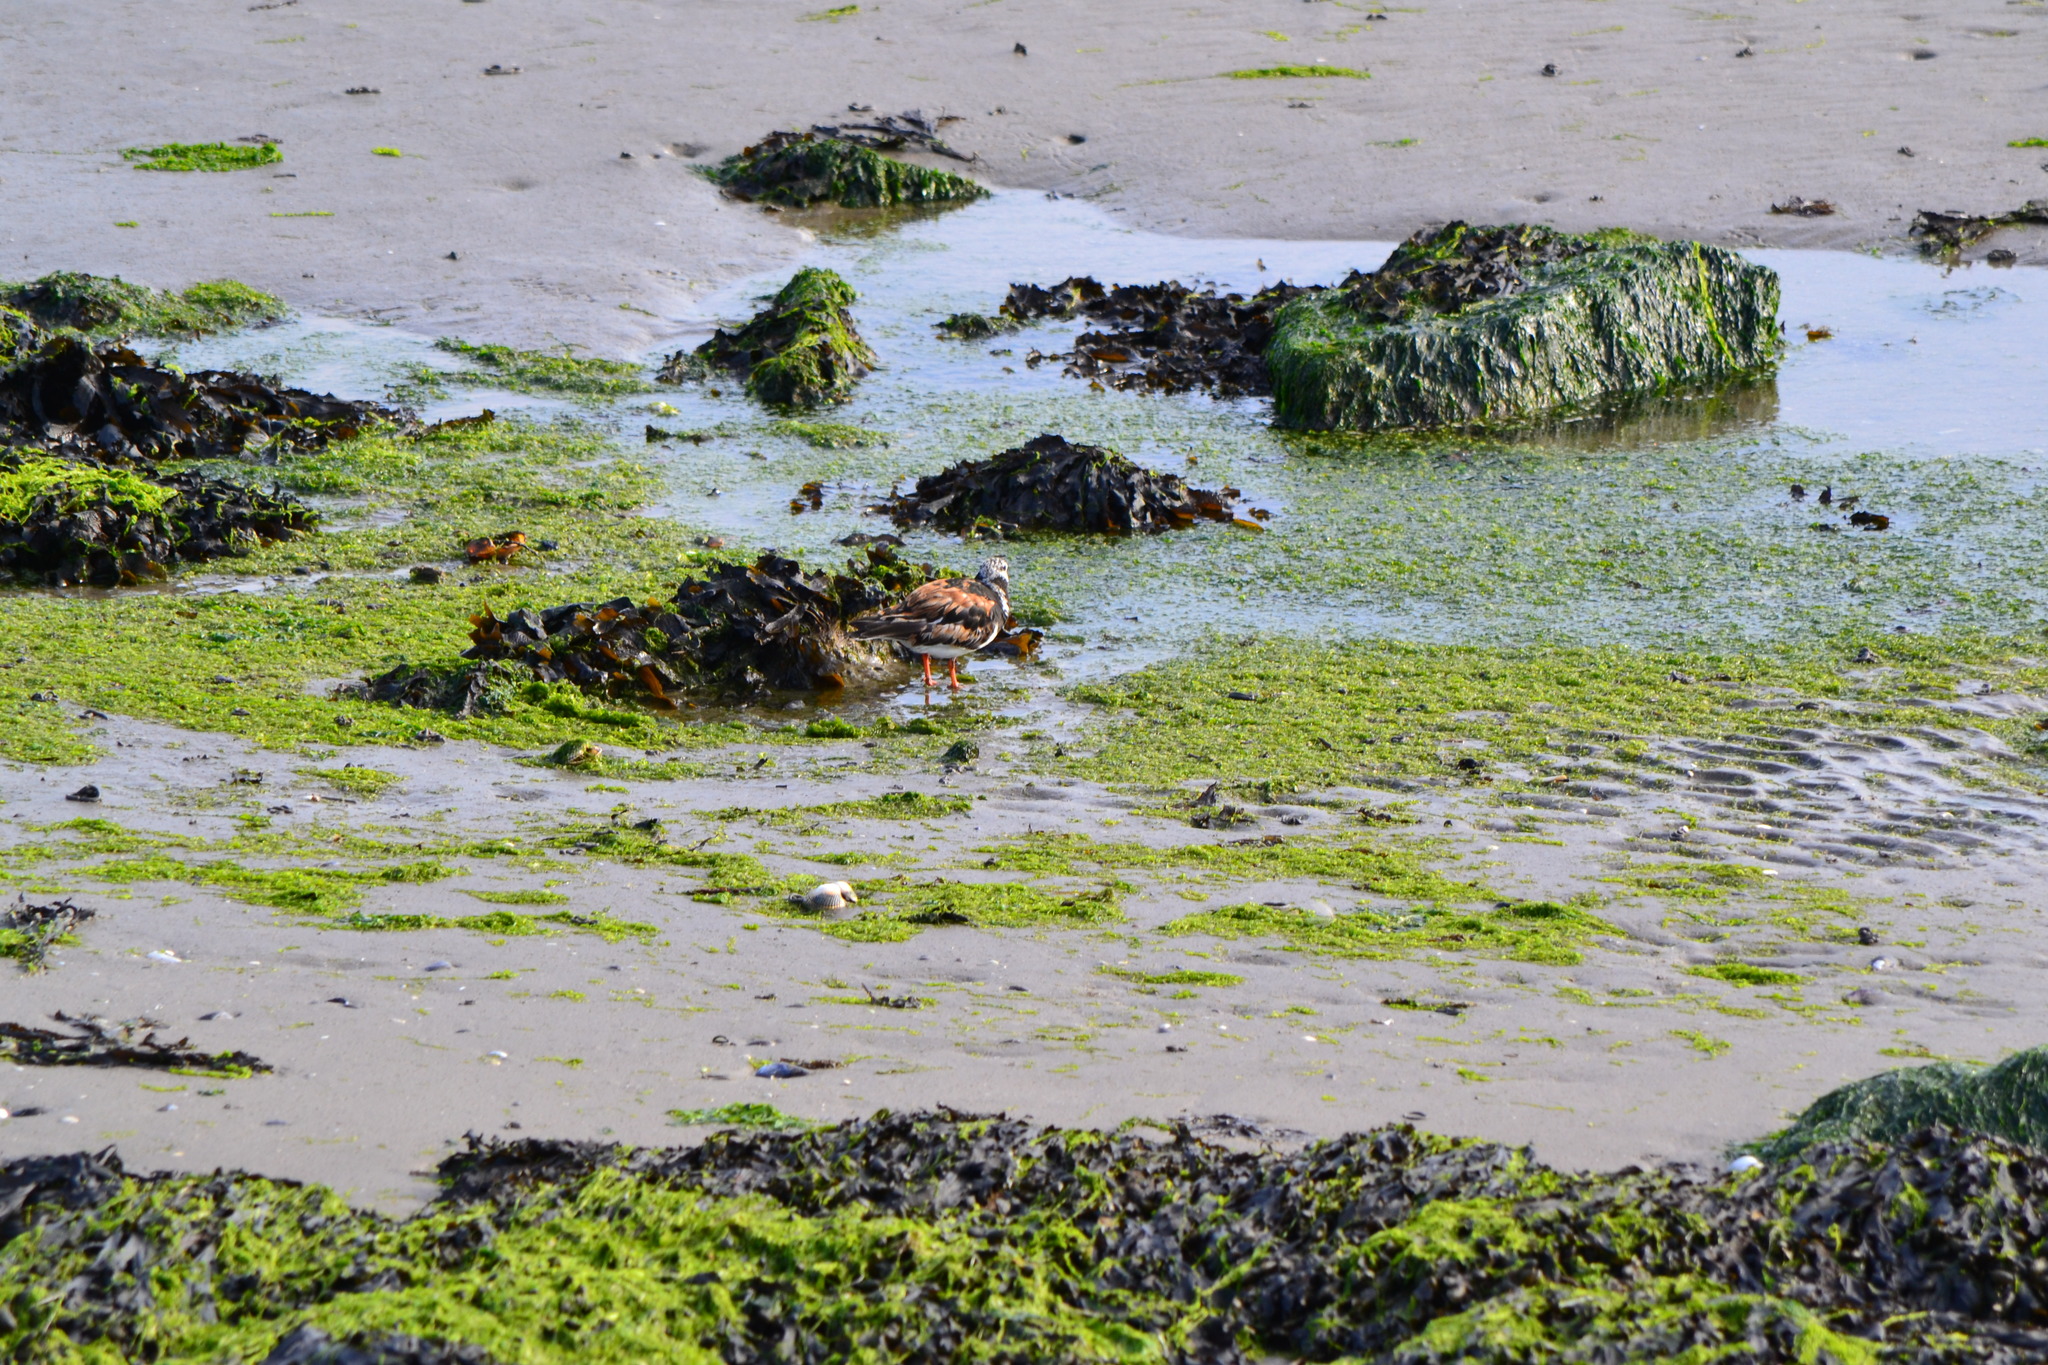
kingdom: Animalia
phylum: Chordata
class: Aves
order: Charadriiformes
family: Scolopacidae
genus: Arenaria
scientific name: Arenaria interpres
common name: Ruddy turnstone
